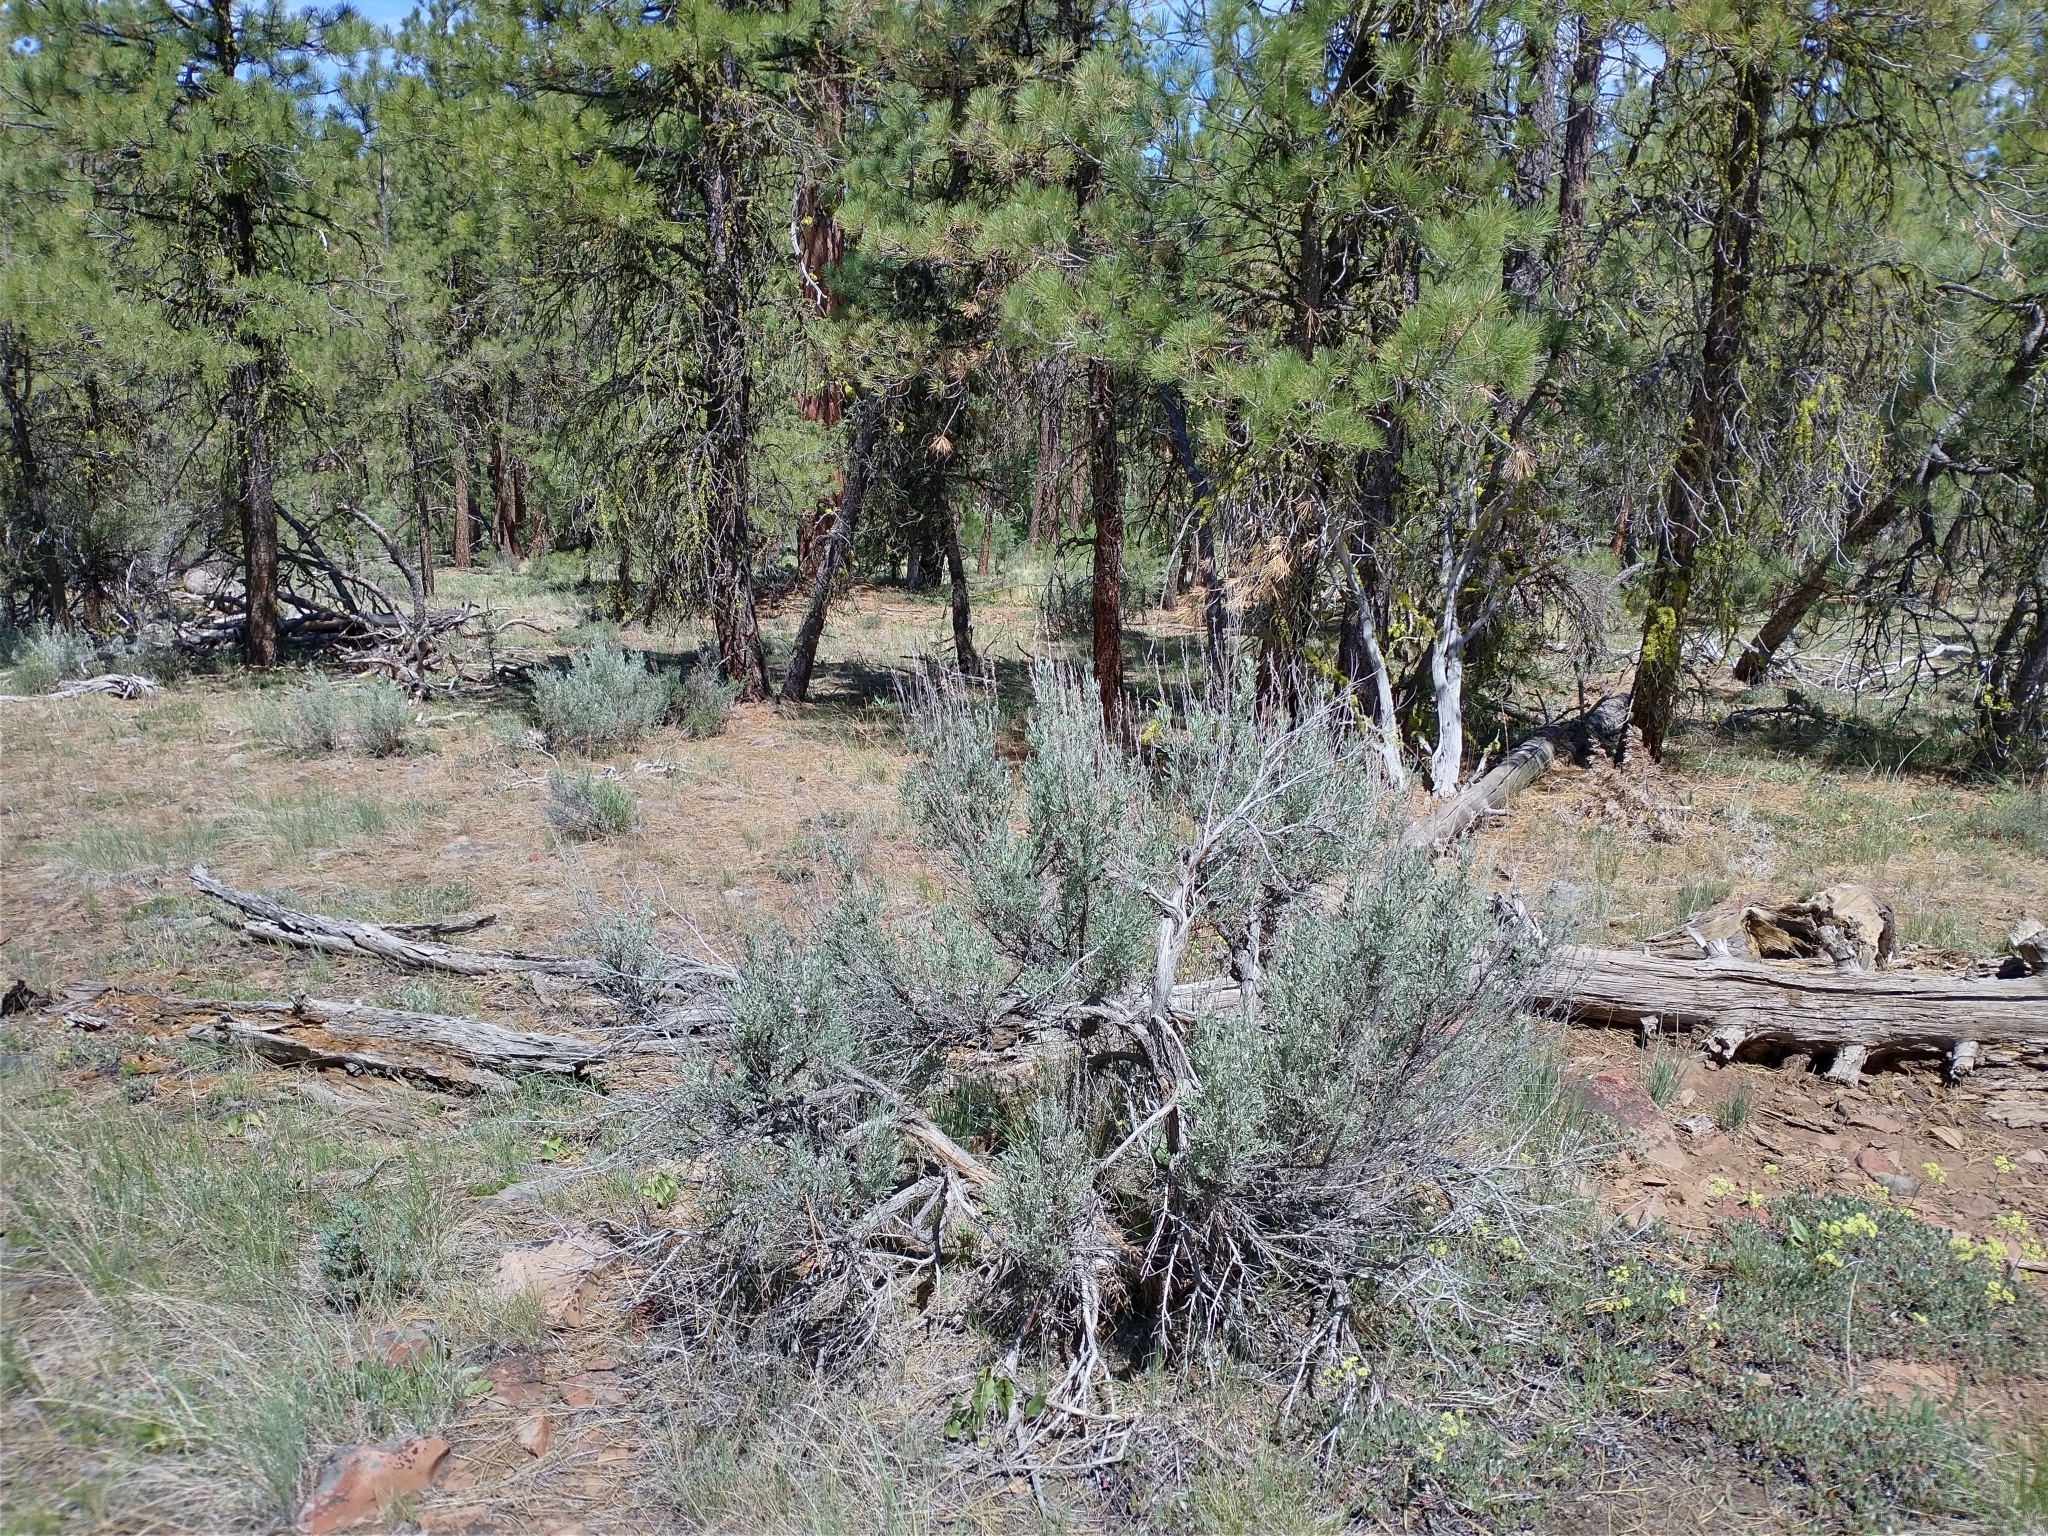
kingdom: Plantae
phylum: Tracheophyta
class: Magnoliopsida
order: Asterales
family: Asteraceae
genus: Artemisia
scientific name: Artemisia tridentata
